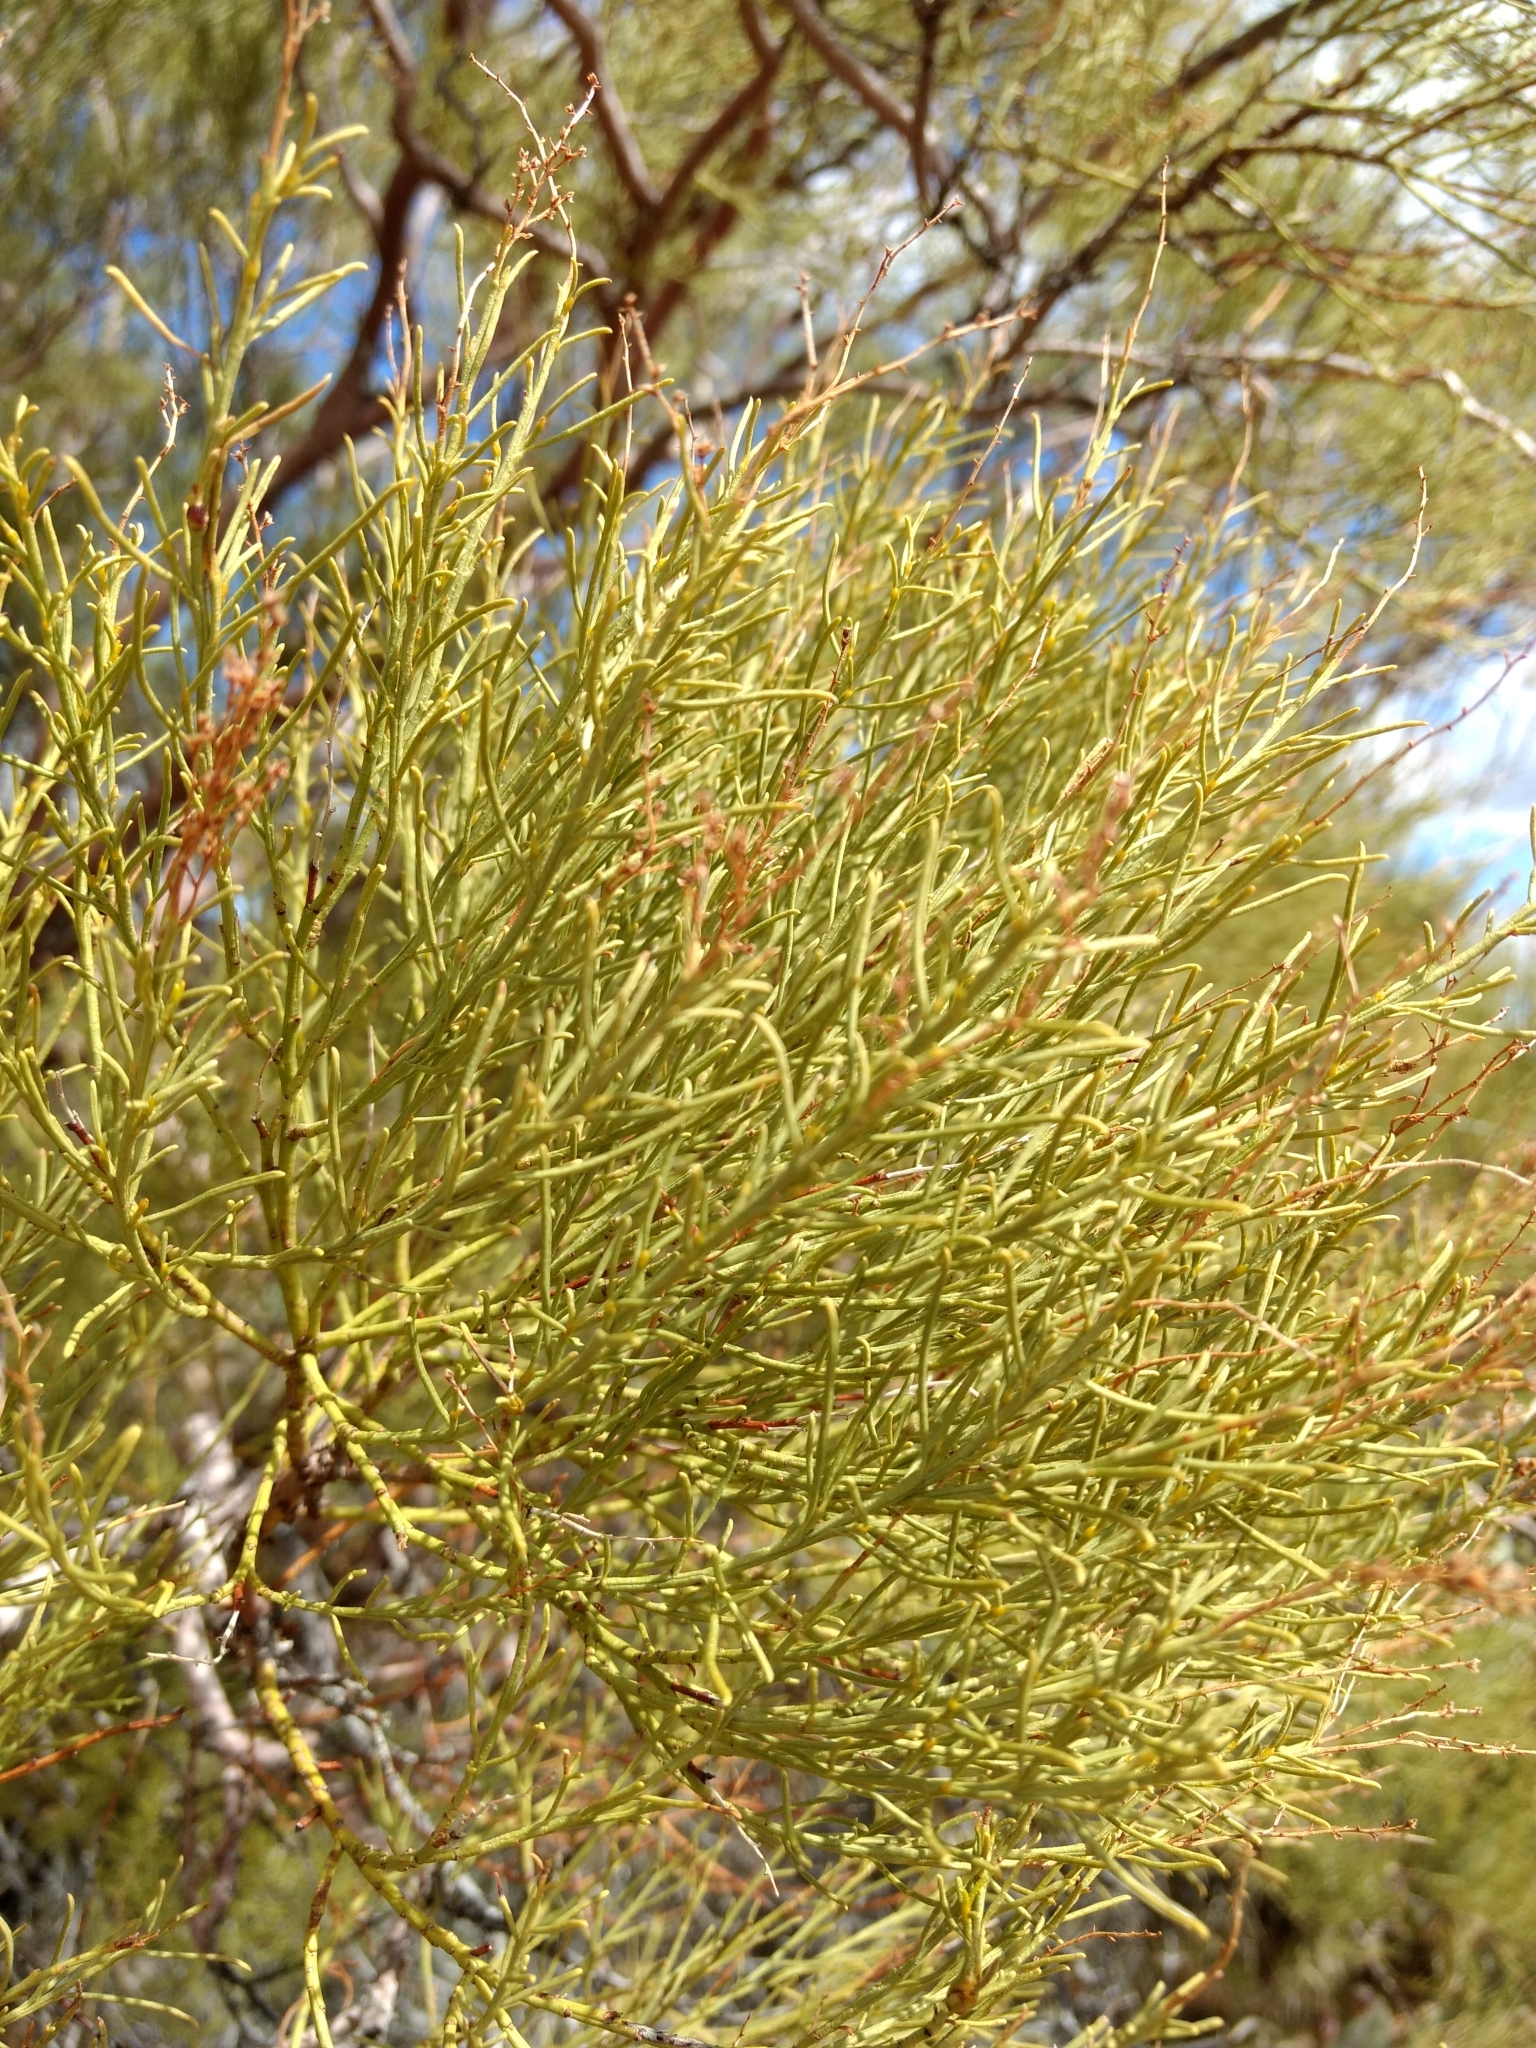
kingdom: Plantae
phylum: Tracheophyta
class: Magnoliopsida
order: Rosales
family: Rosaceae
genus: Adenostoma
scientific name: Adenostoma sparsifolium
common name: Red shank
